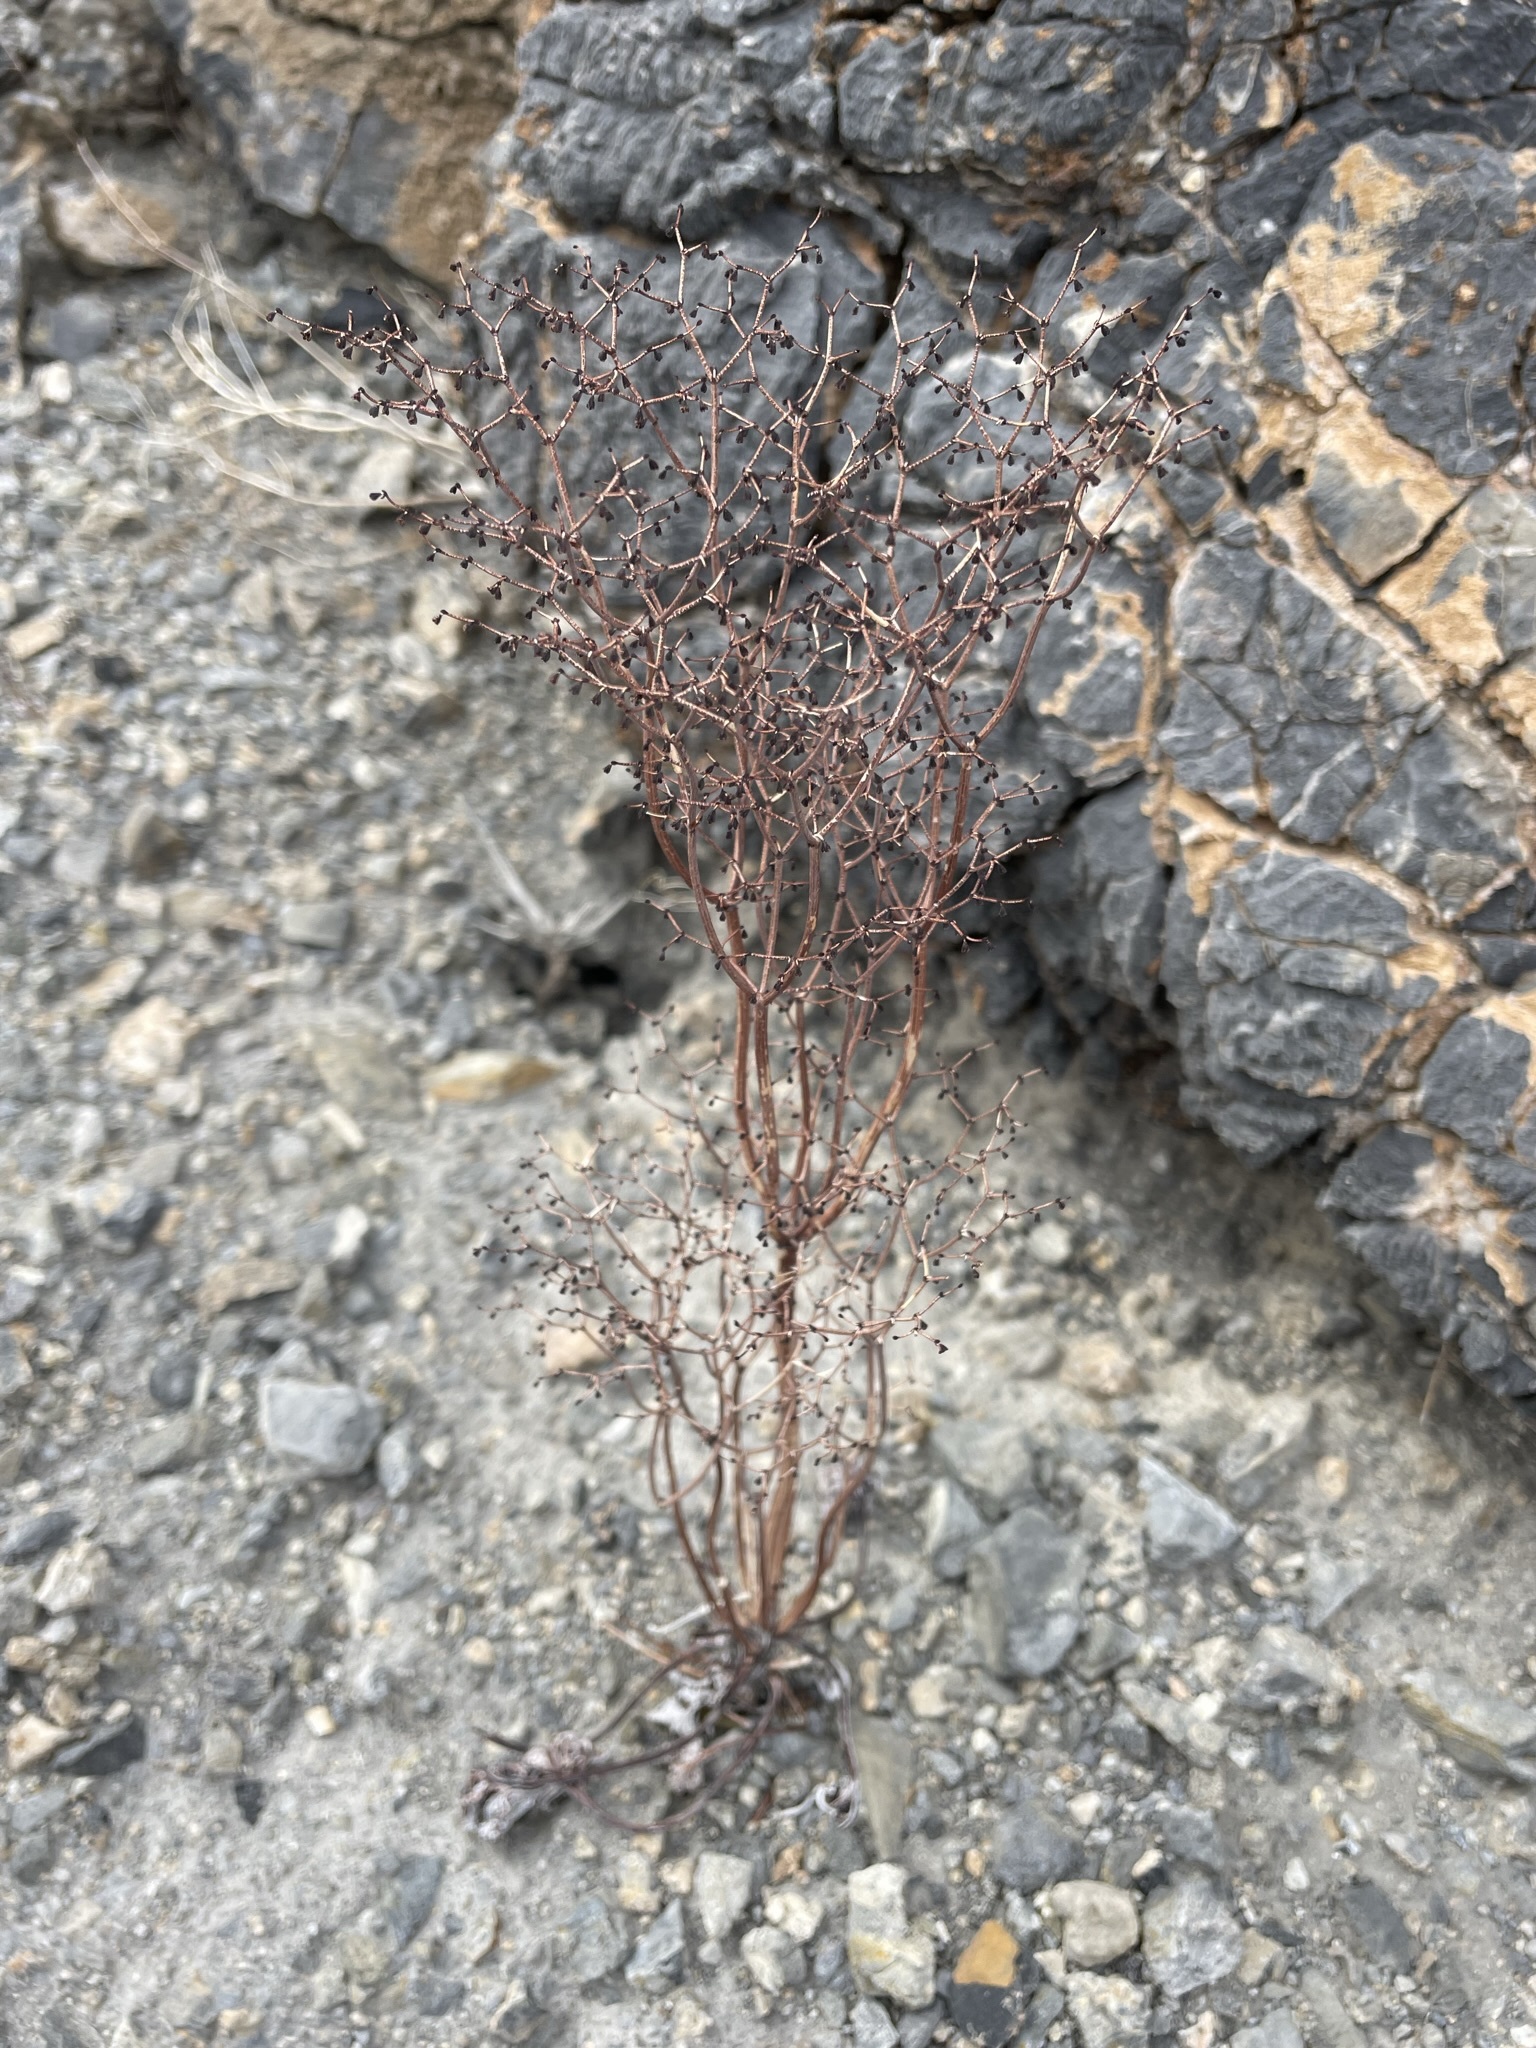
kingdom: Plantae
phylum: Tracheophyta
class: Magnoliopsida
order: Caryophyllales
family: Polygonaceae
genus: Eriogonum
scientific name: Eriogonum rixfordii
